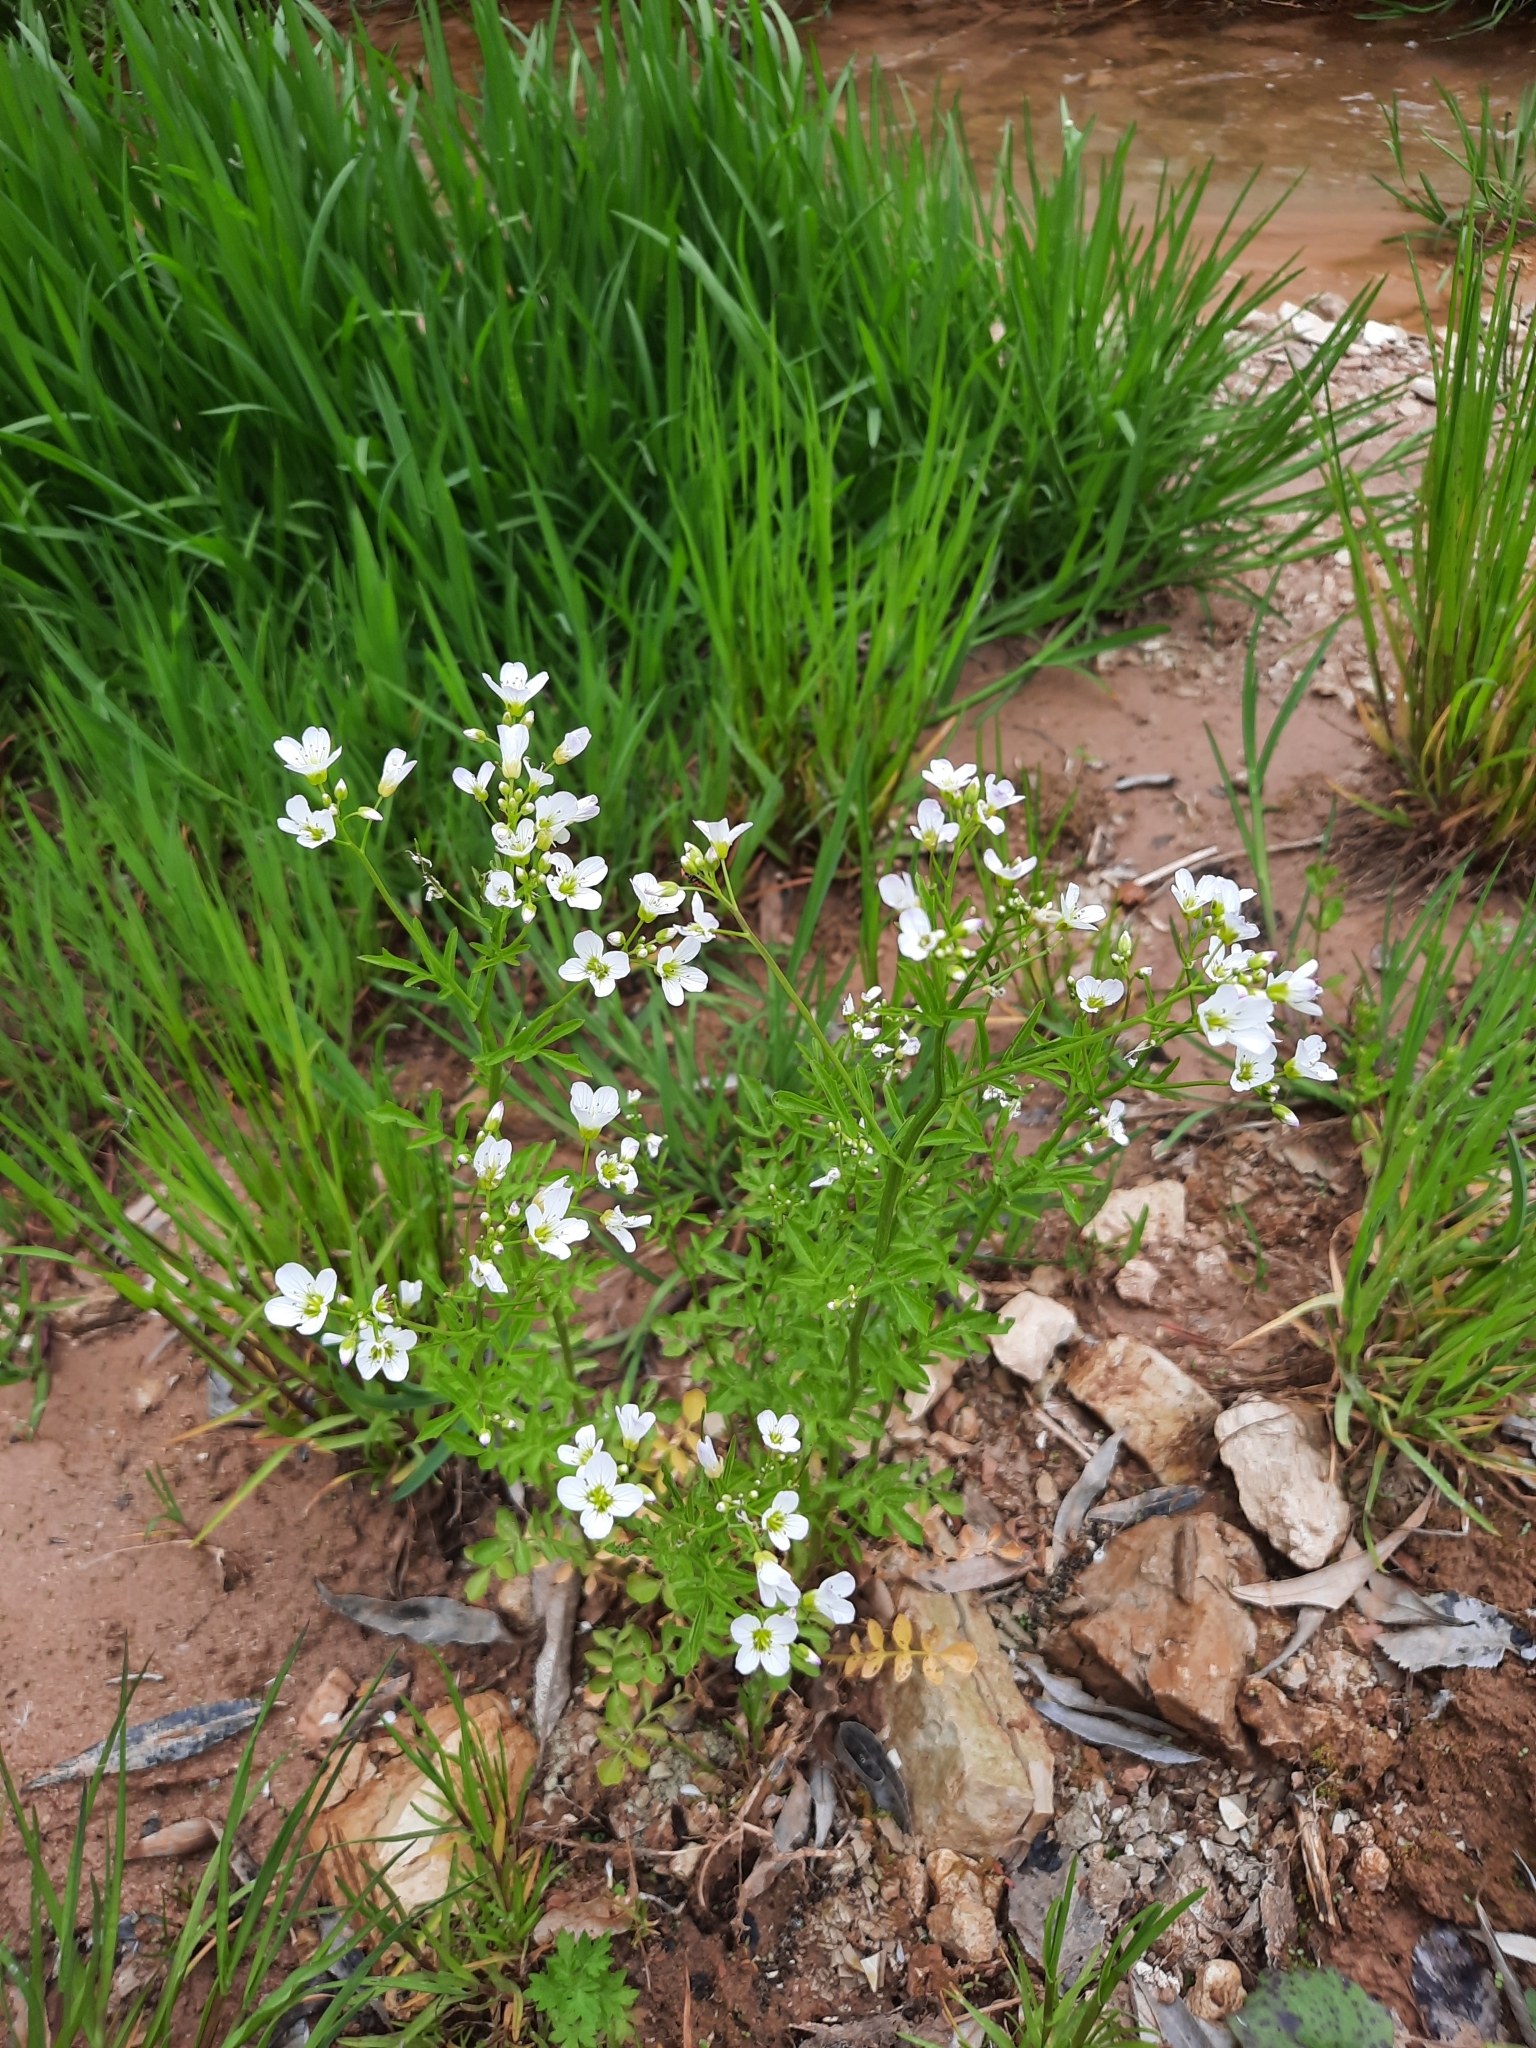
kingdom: Plantae
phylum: Tracheophyta
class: Magnoliopsida
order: Brassicales
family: Brassicaceae
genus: Cardamine
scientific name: Cardamine amara
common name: Large bitter-cress
